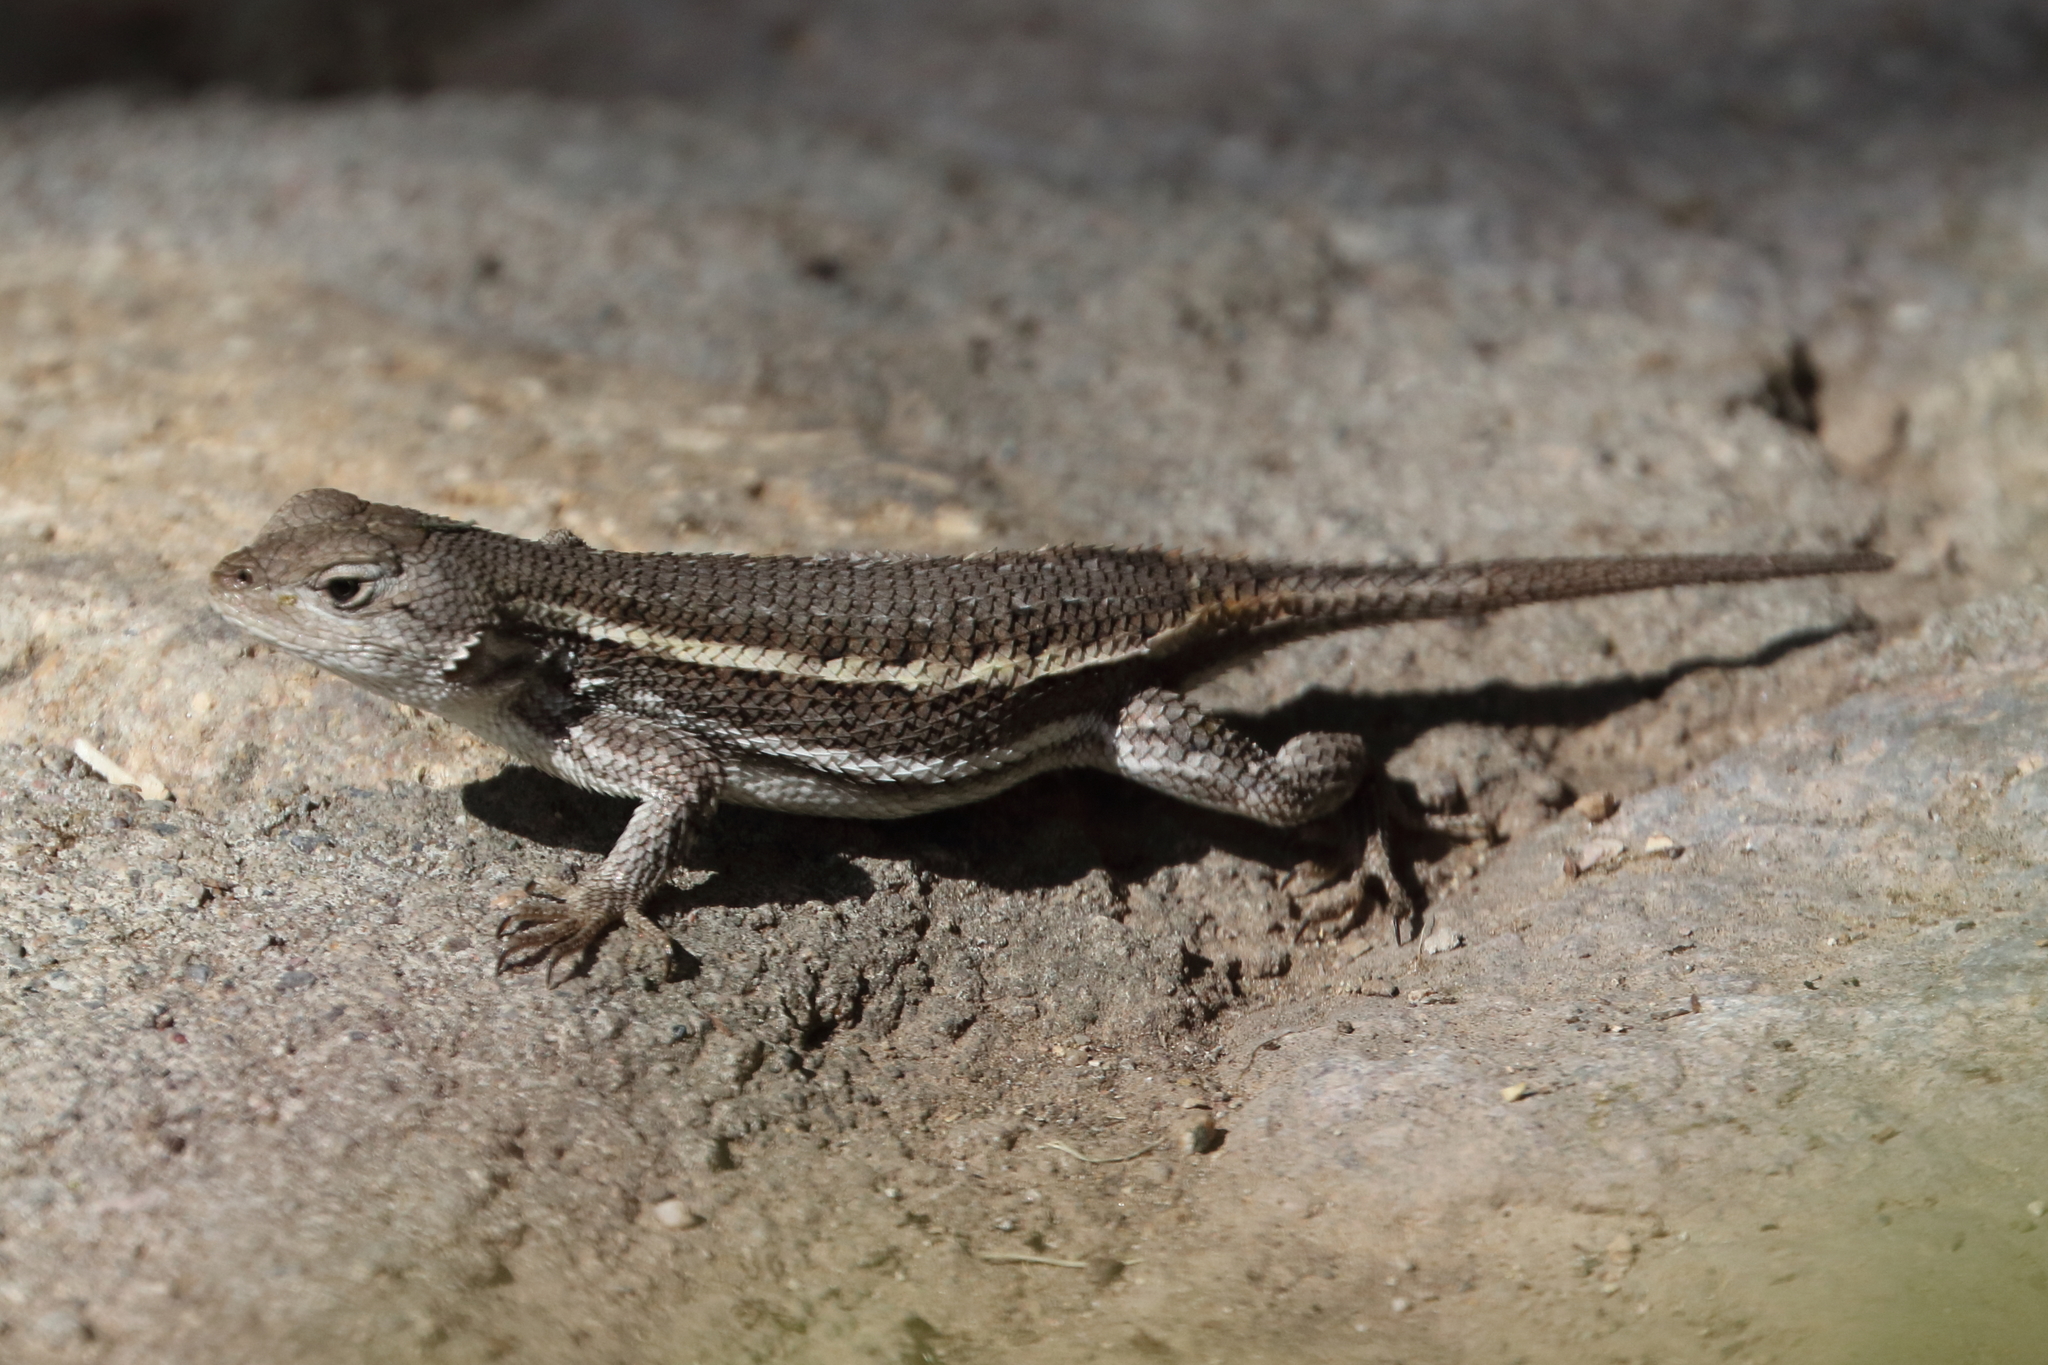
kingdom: Animalia
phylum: Chordata
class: Squamata
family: Phrynosomatidae
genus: Sceloporus
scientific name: Sceloporus virgatus
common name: Striped plateau lizard
